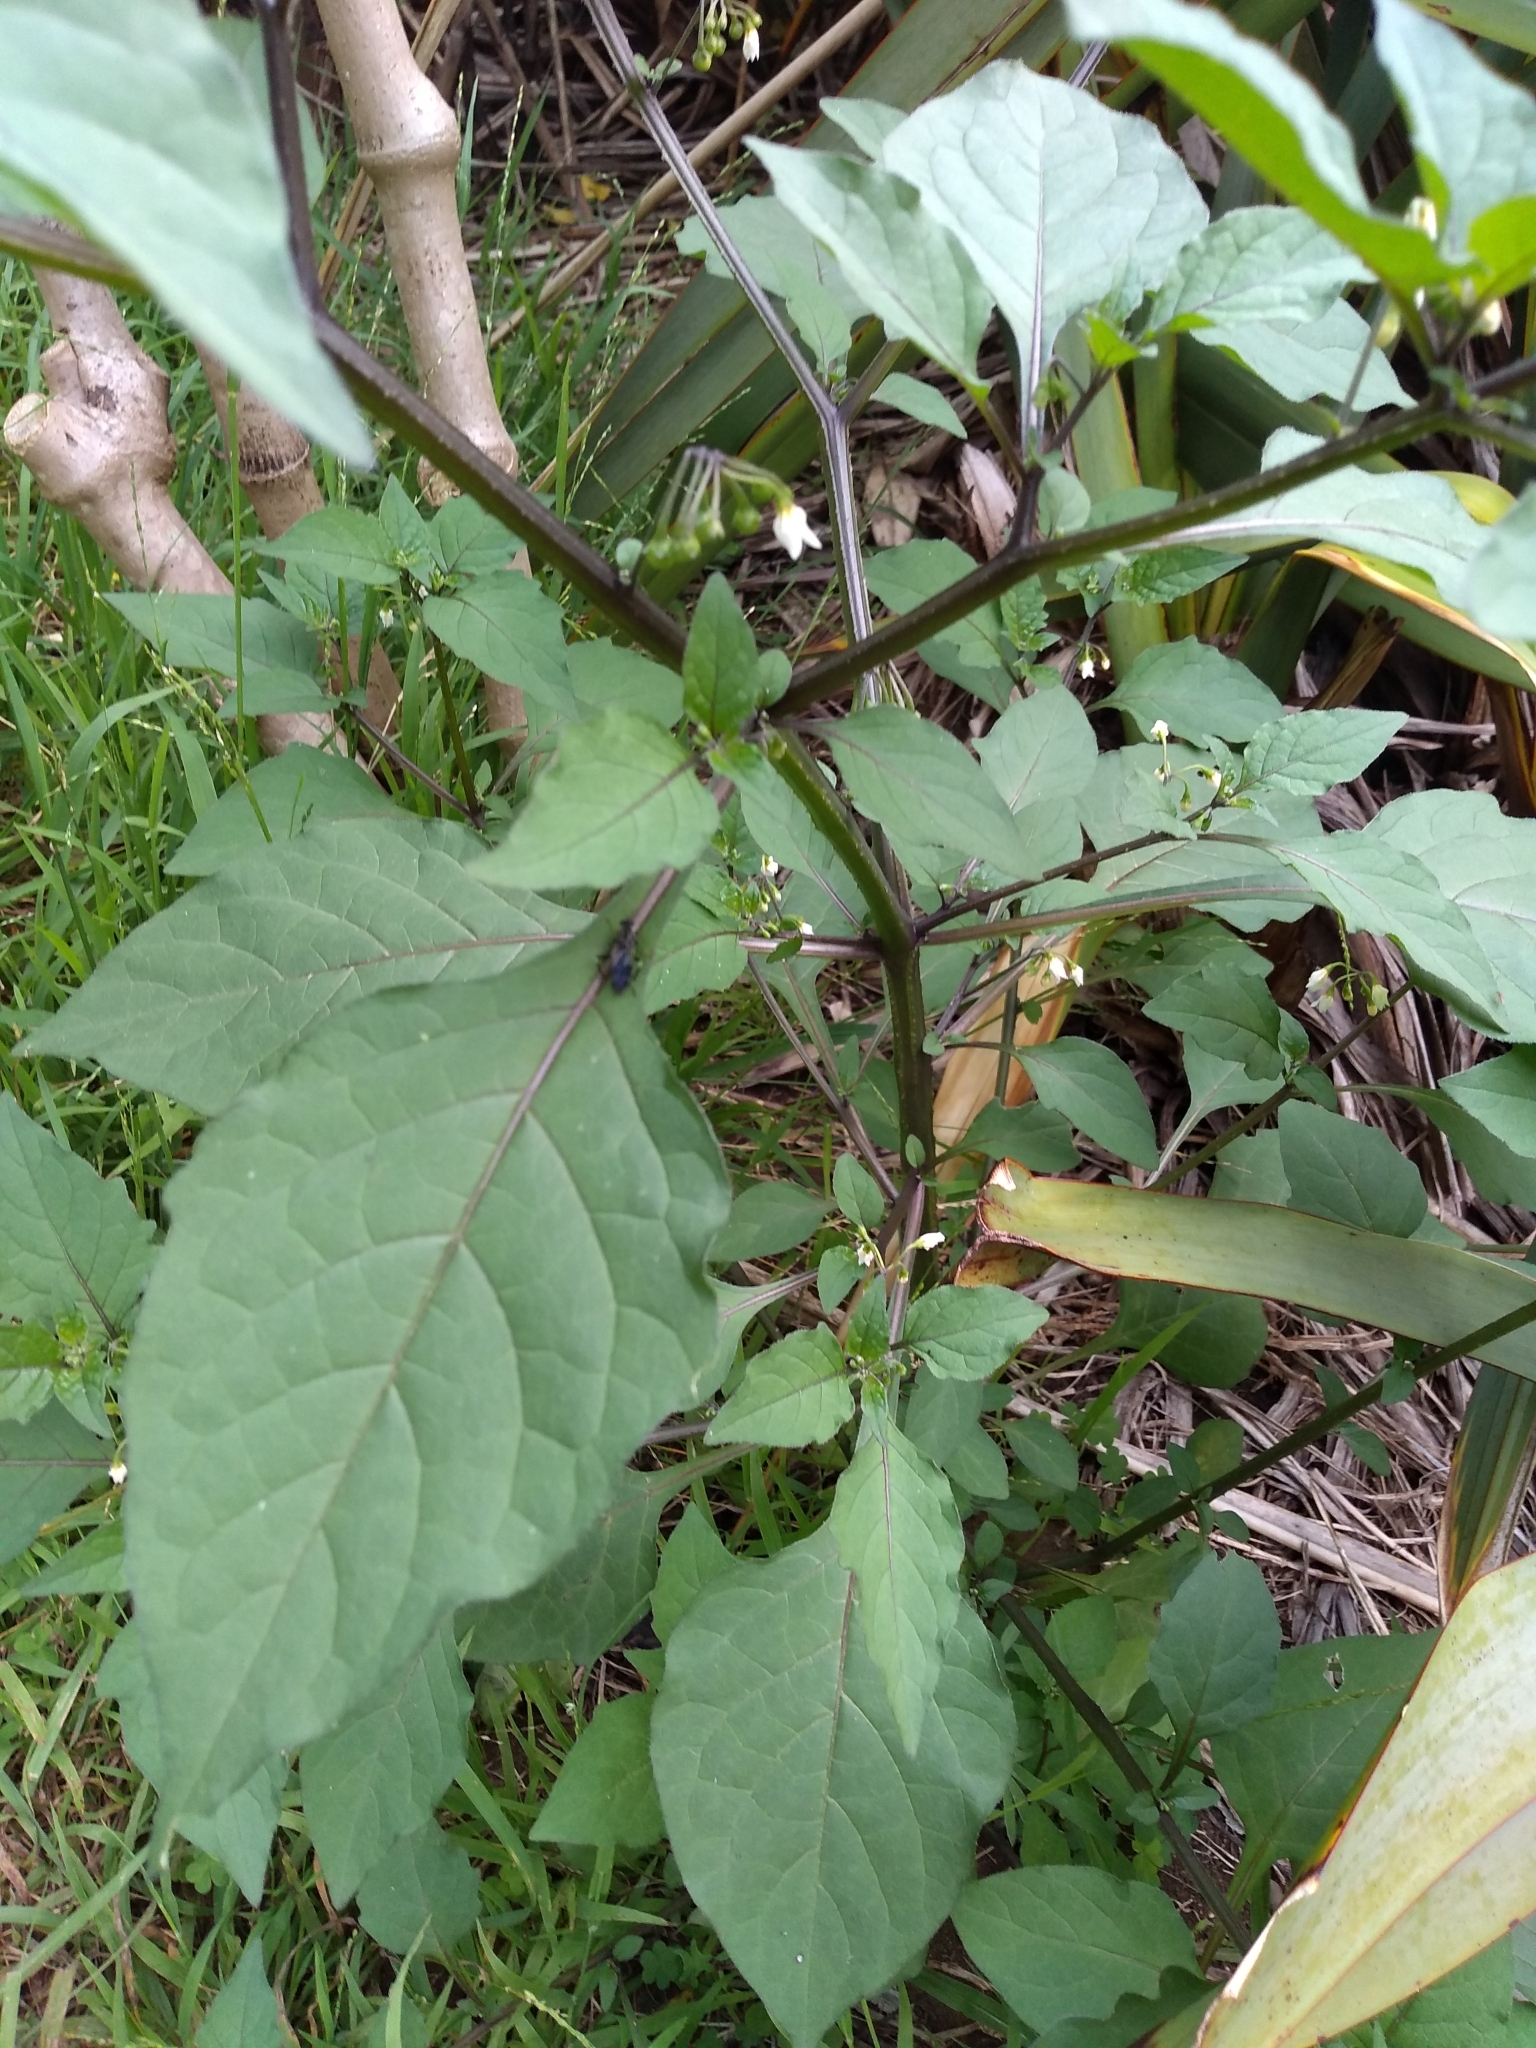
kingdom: Plantae
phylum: Tracheophyta
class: Magnoliopsida
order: Solanales
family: Solanaceae
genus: Solanum
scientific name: Solanum nigrum
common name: Black nightshade
